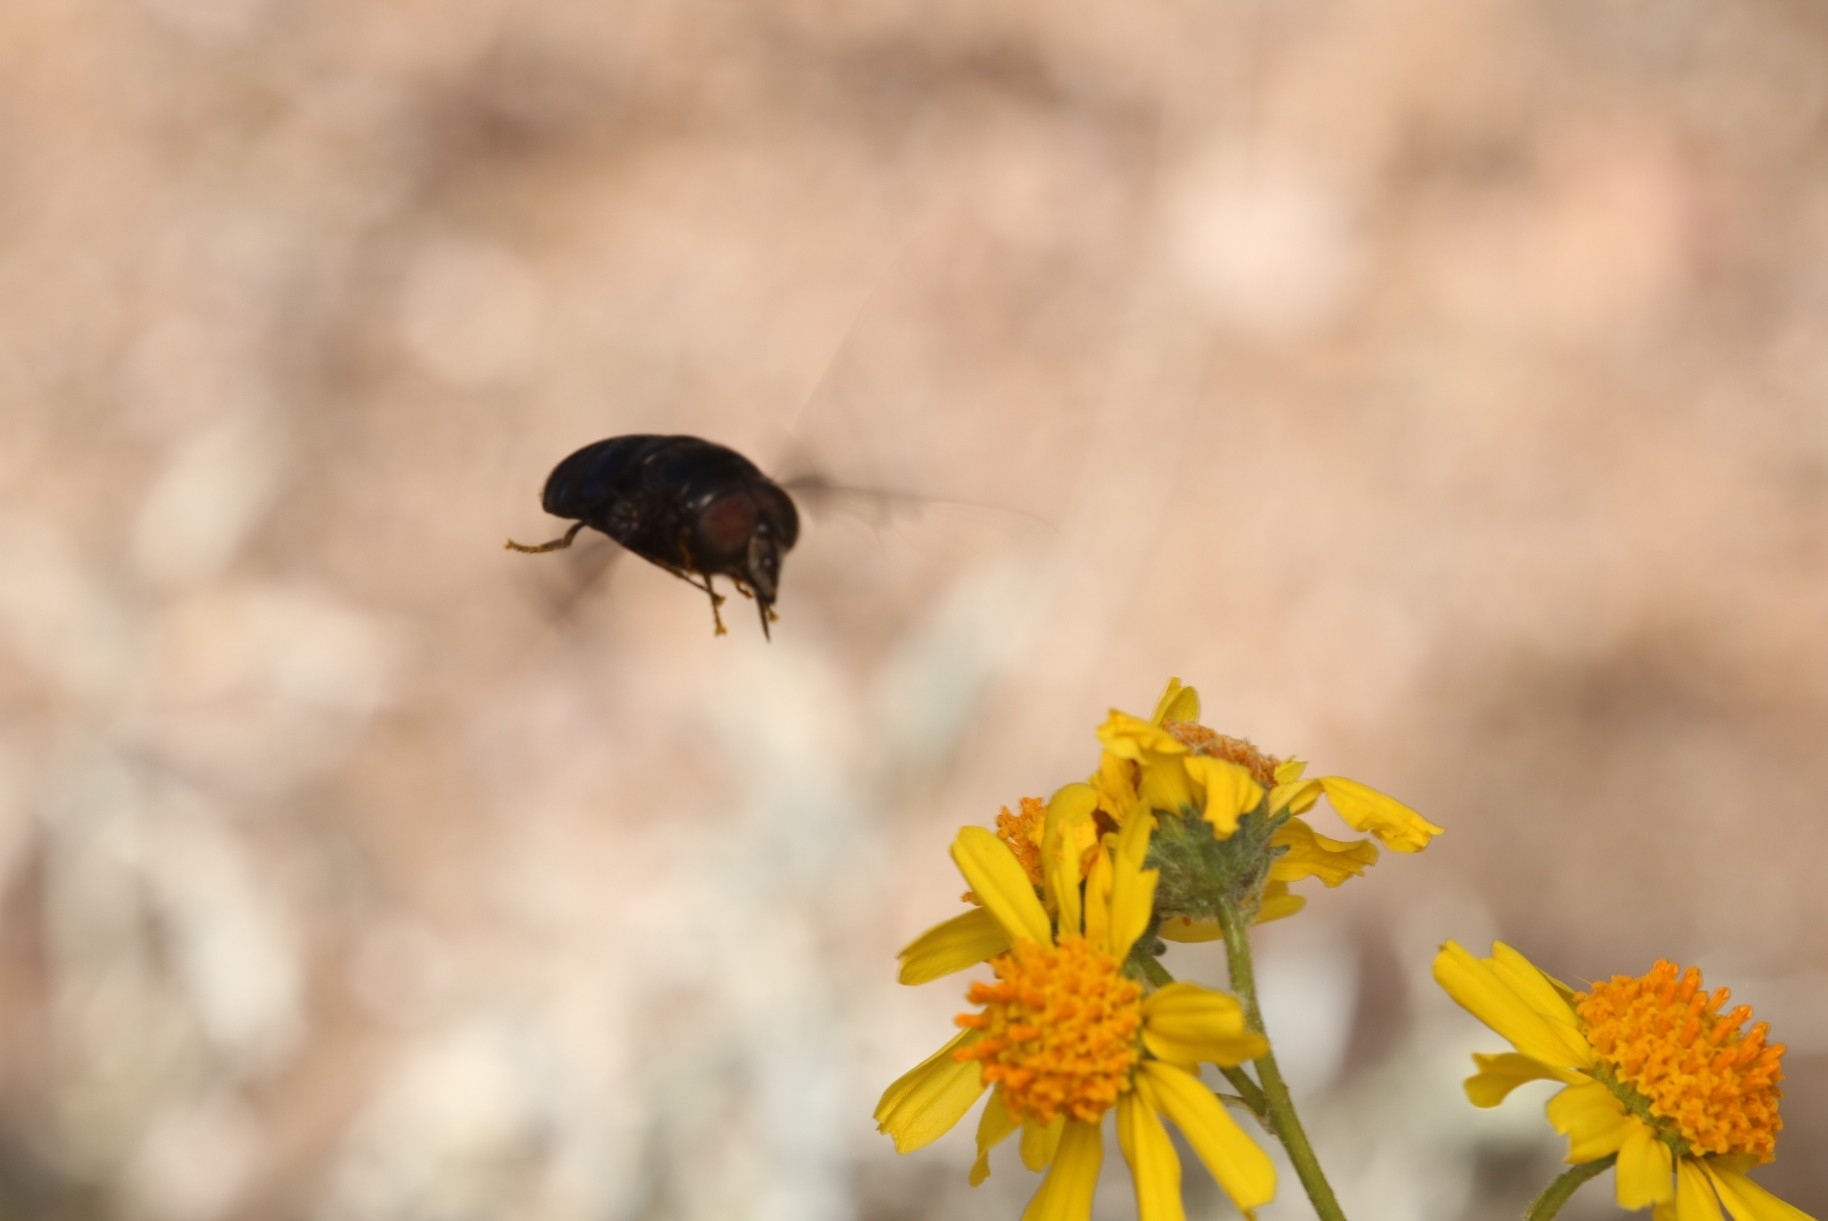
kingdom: Animalia
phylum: Arthropoda
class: Insecta
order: Diptera
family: Syrphidae
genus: Copestylum
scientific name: Copestylum mexicanum
